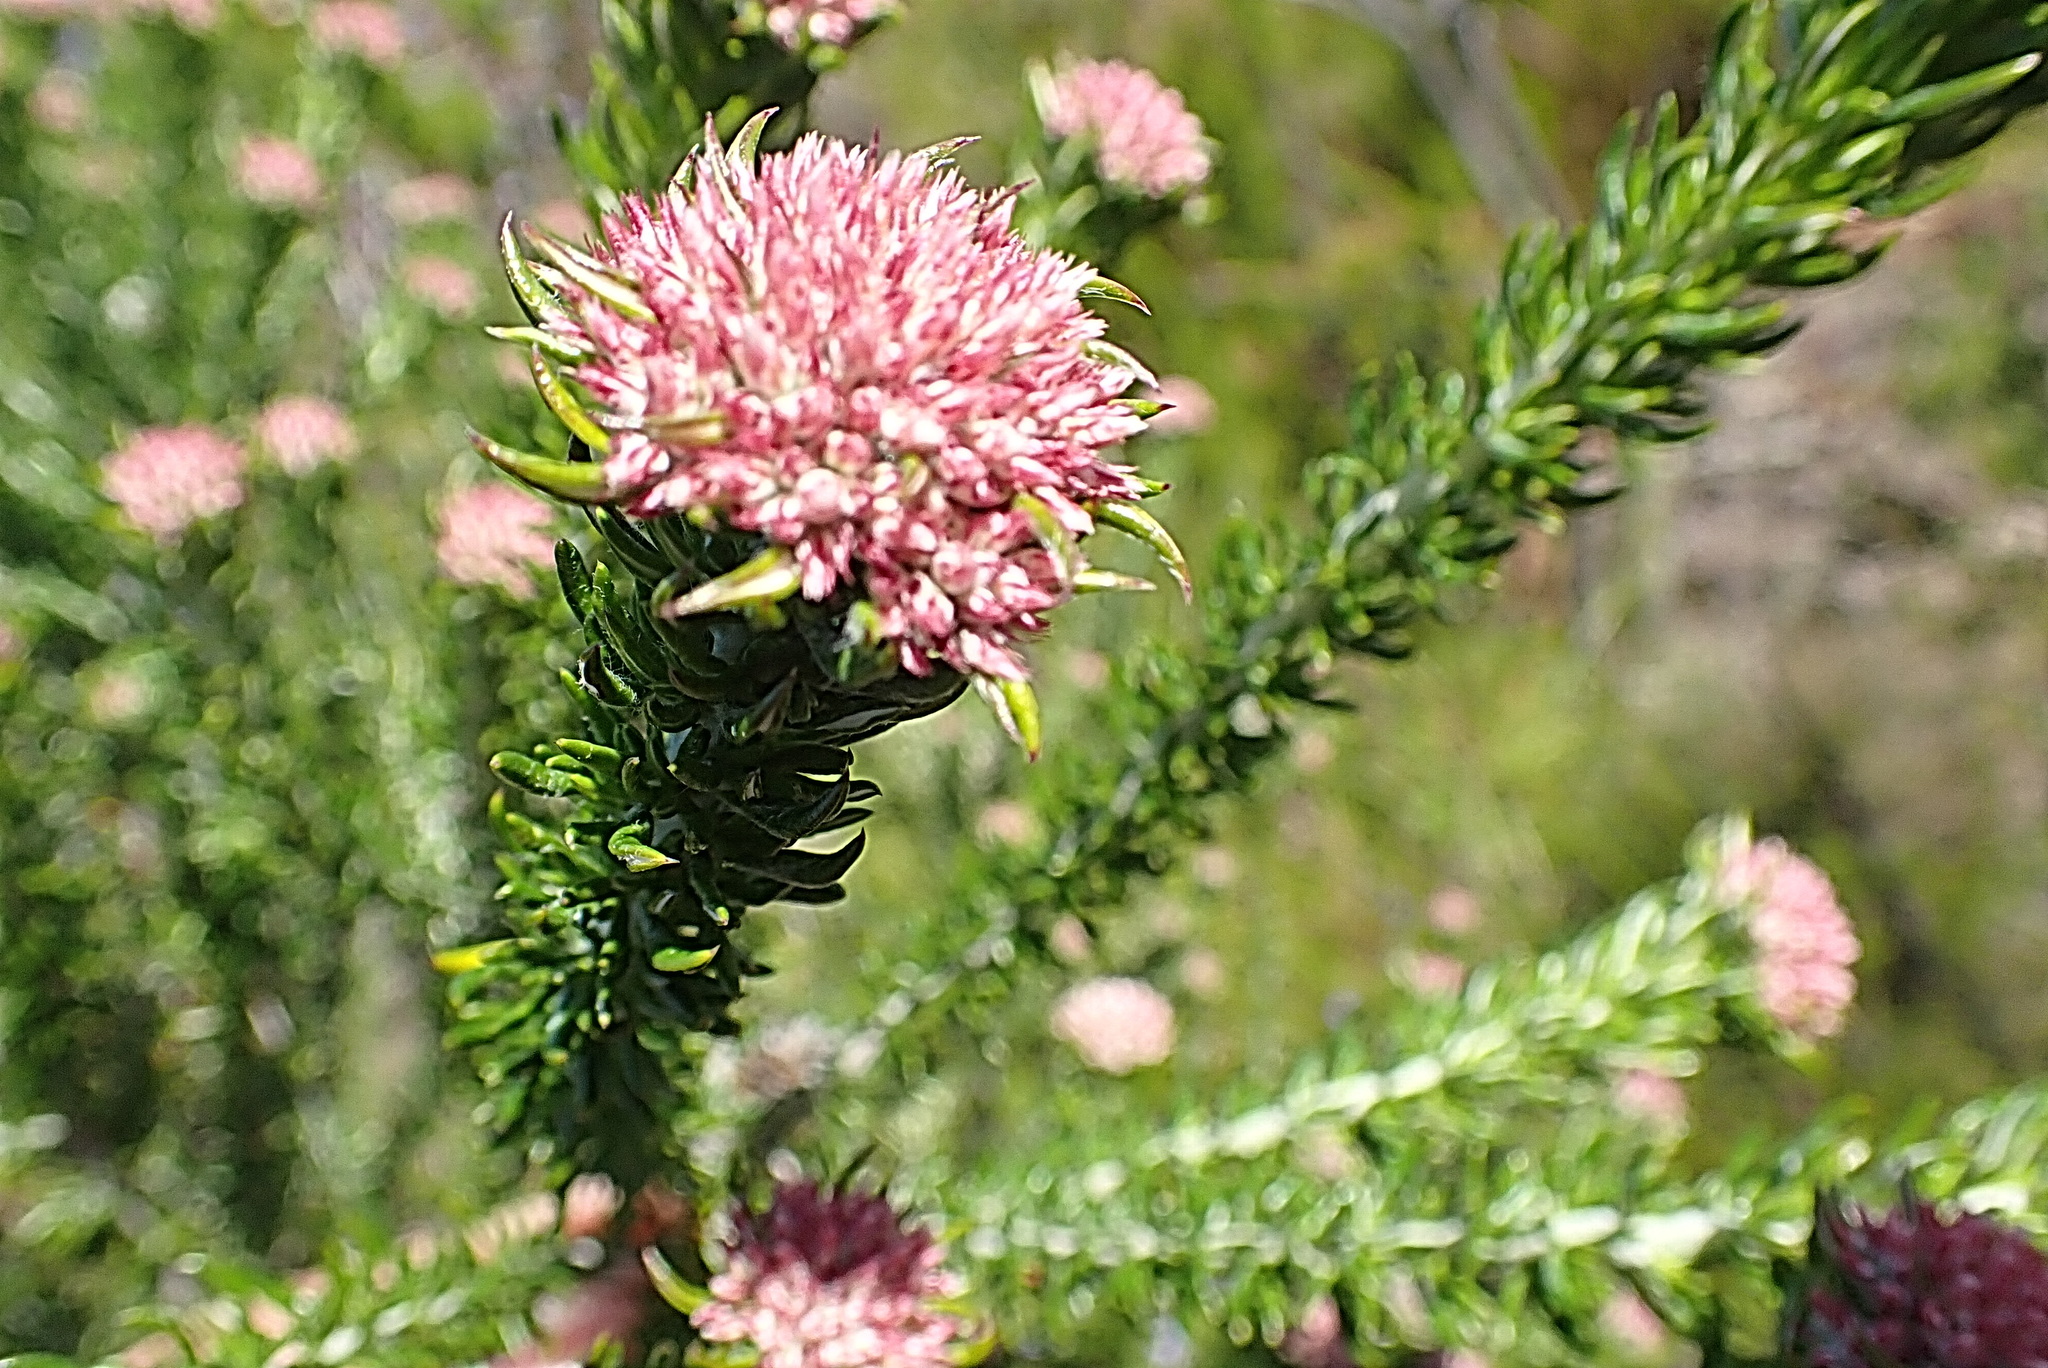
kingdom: Plantae
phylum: Tracheophyta
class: Magnoliopsida
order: Asterales
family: Asteraceae
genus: Metalasia
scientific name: Metalasia trivialis
